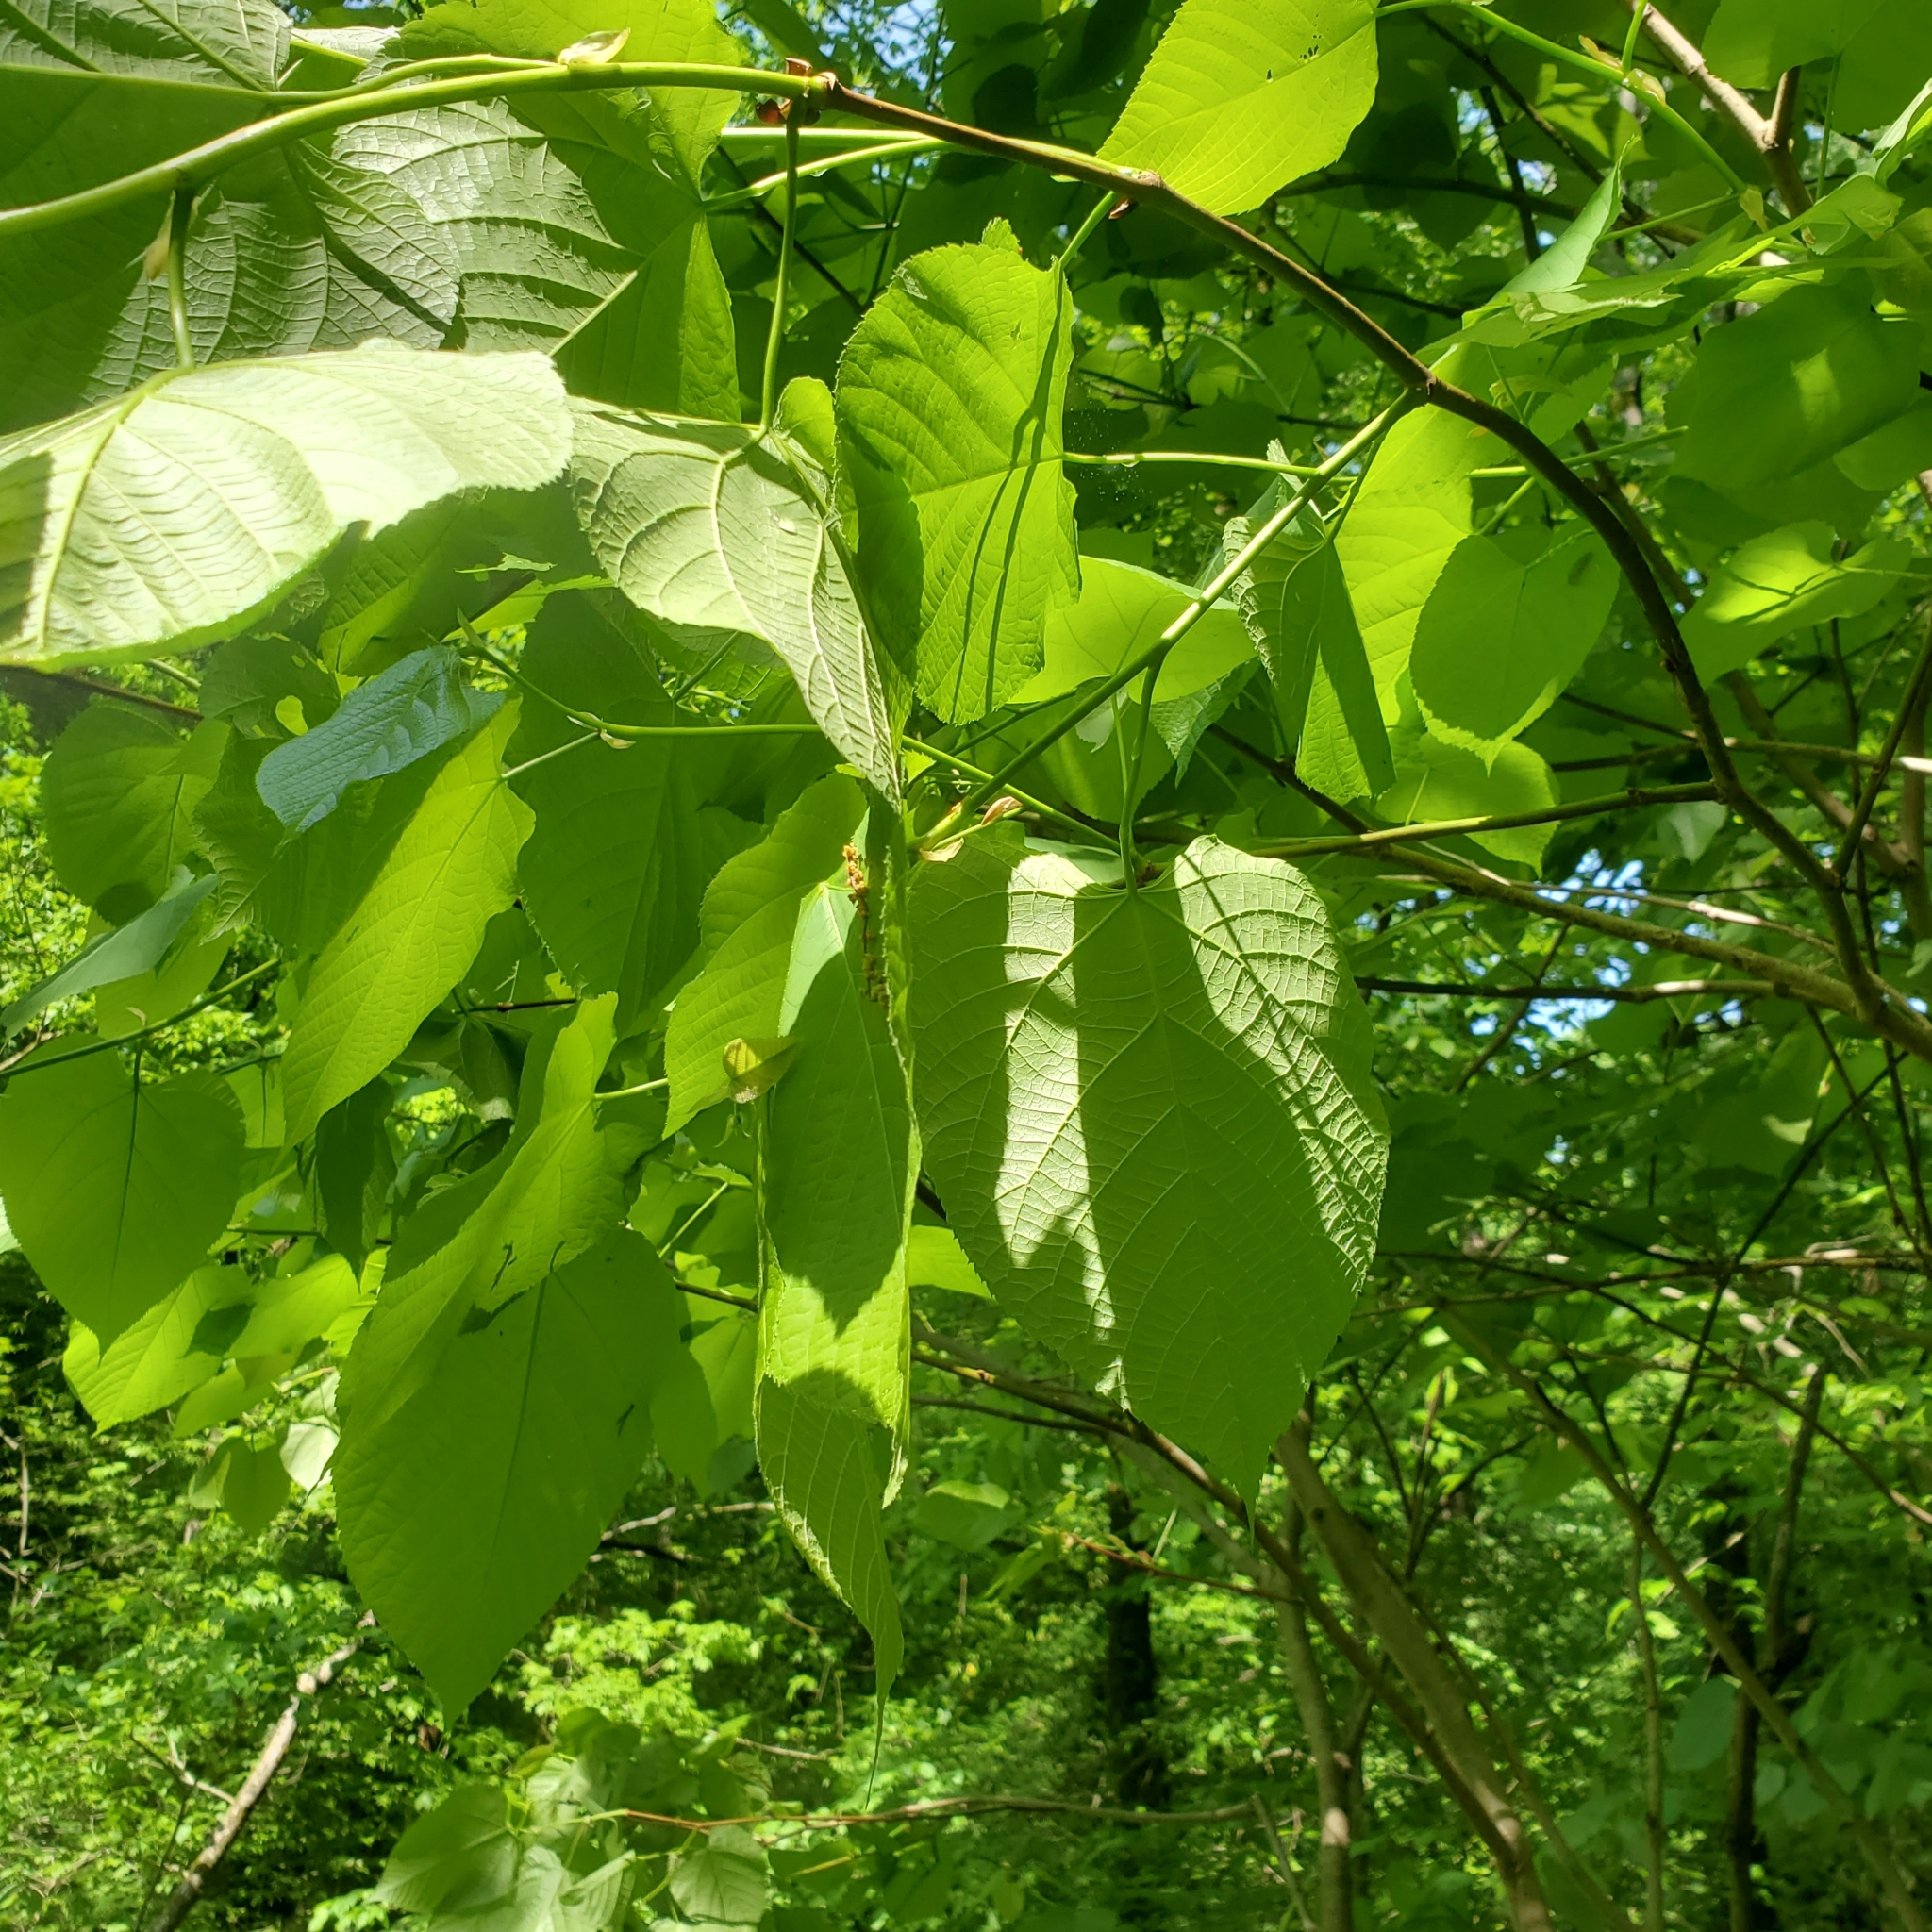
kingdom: Plantae
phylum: Tracheophyta
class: Magnoliopsida
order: Malvales
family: Malvaceae
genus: Tilia
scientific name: Tilia americana
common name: Basswood
